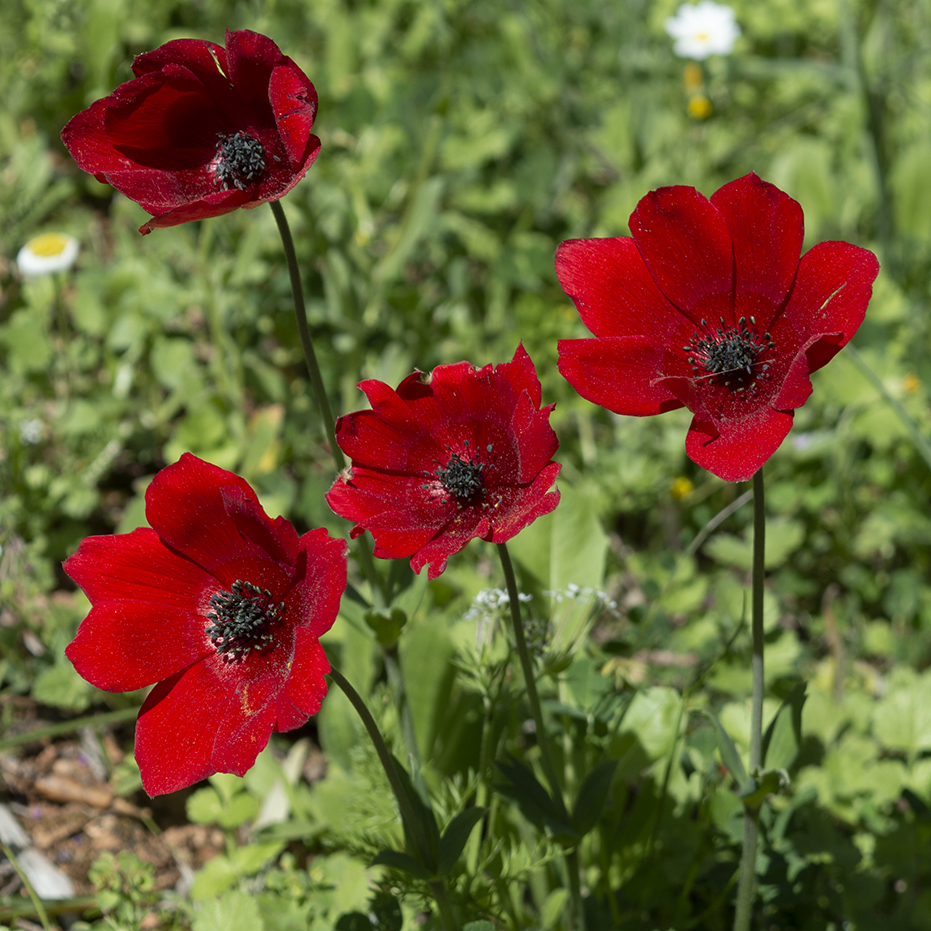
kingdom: Plantae
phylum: Tracheophyta
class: Magnoliopsida
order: Ranunculales
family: Ranunculaceae
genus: Anemone
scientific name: Anemone pavonina
